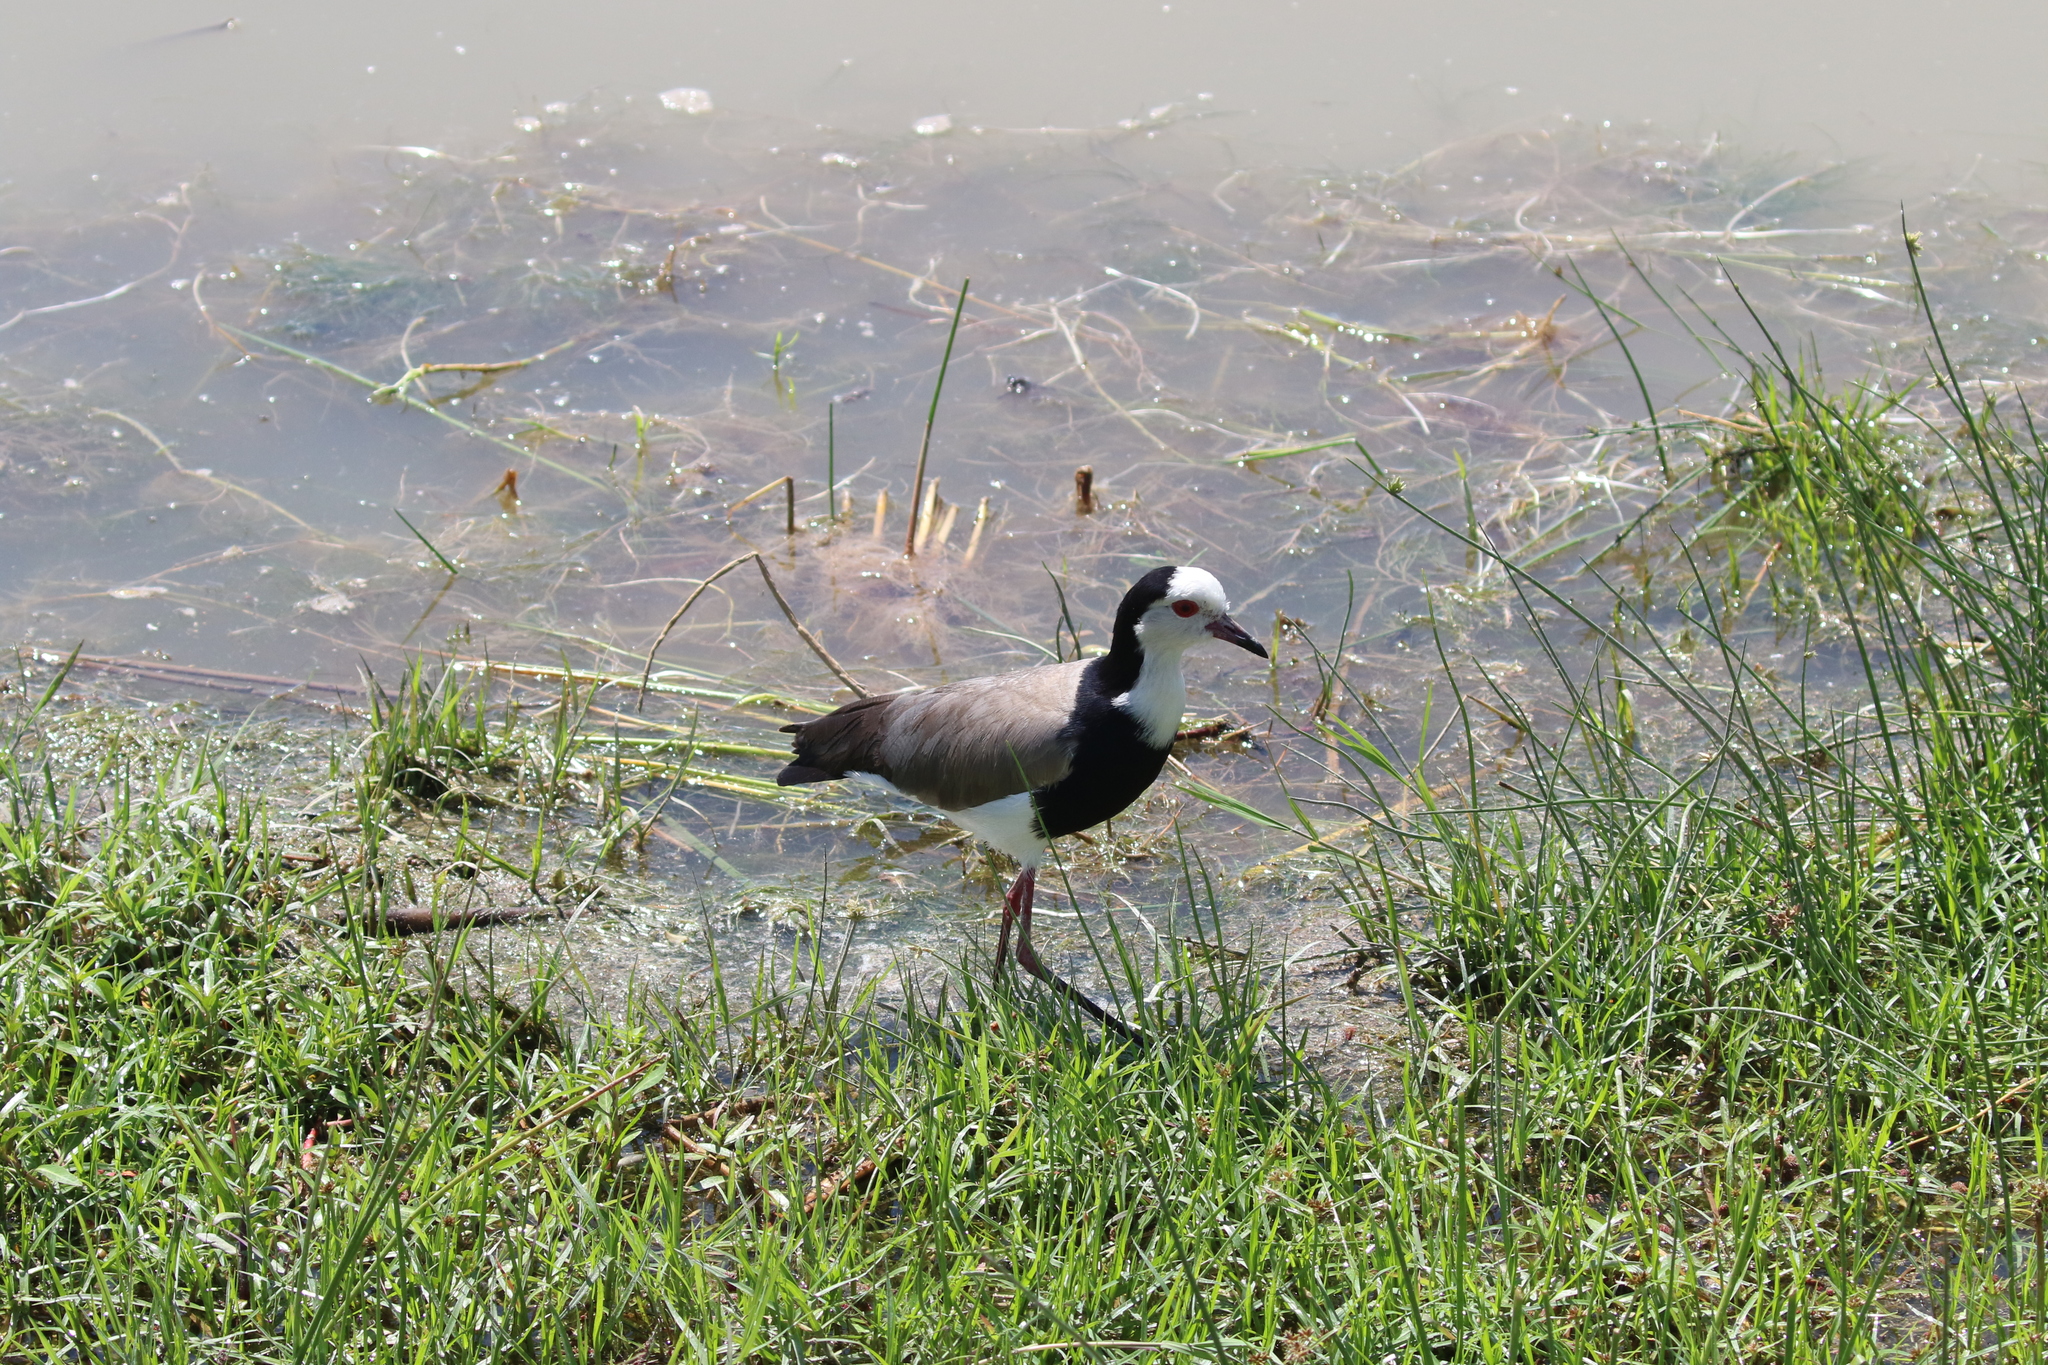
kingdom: Animalia
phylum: Chordata
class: Aves
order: Charadriiformes
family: Charadriidae
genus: Vanellus
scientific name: Vanellus crassirostris
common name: Long-toed lapwing
